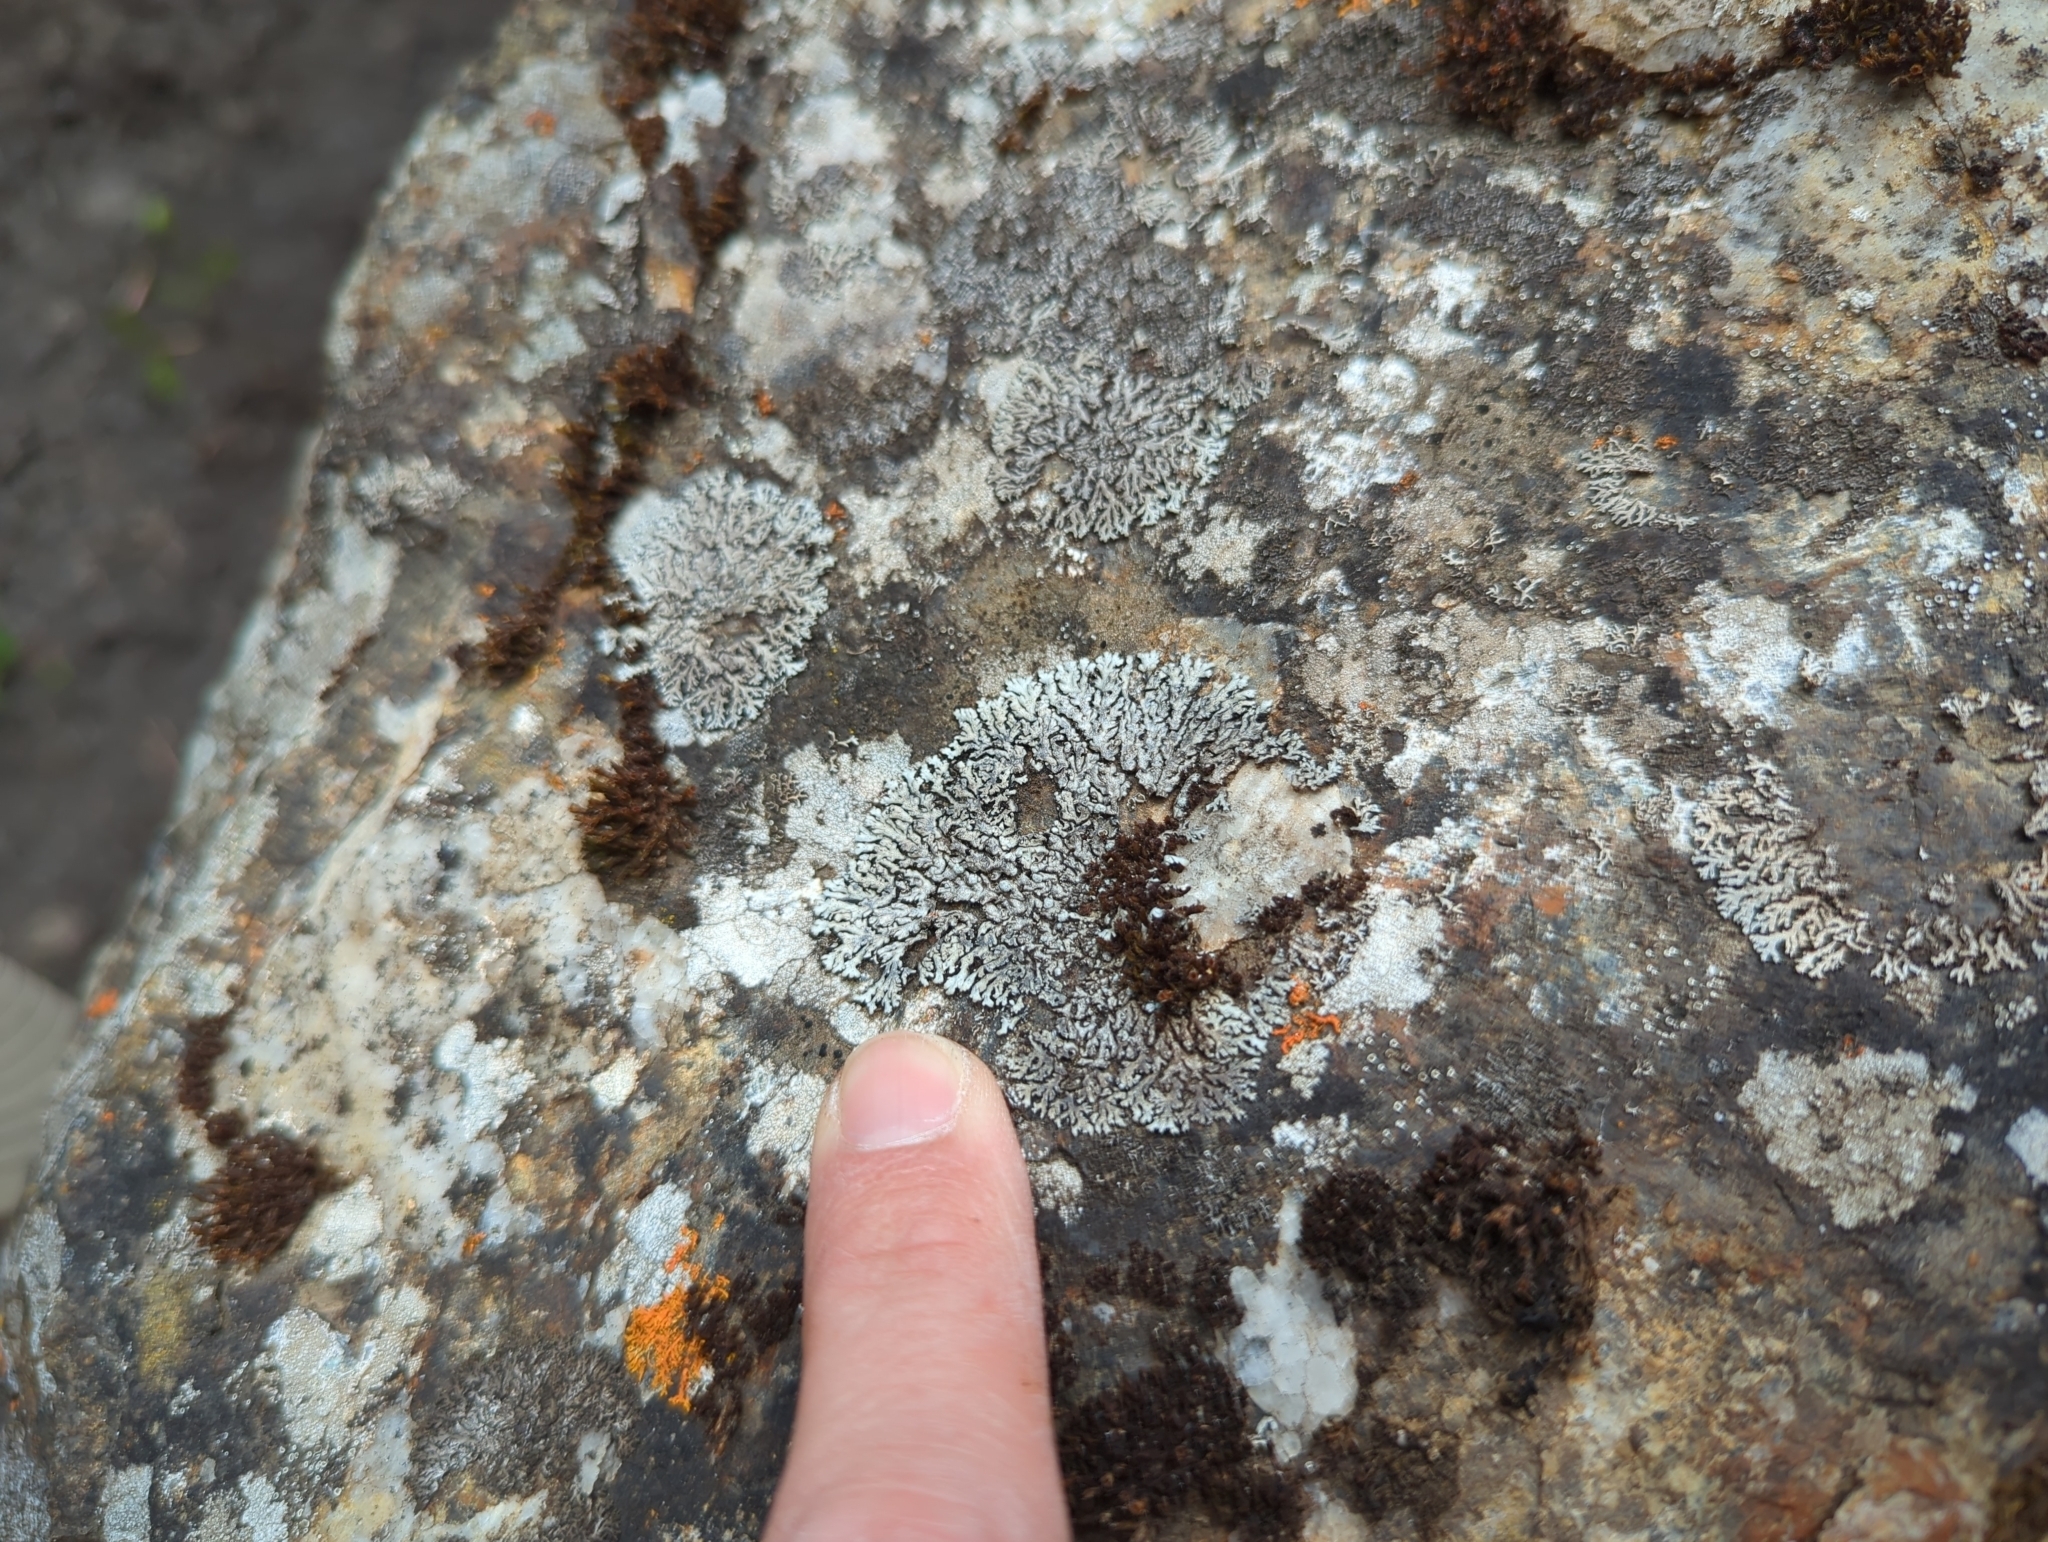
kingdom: Fungi
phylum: Ascomycota
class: Lecanoromycetes
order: Caliciales
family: Physciaceae
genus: Physcia
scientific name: Physcia caesia
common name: Blue-gray rosette lichen
